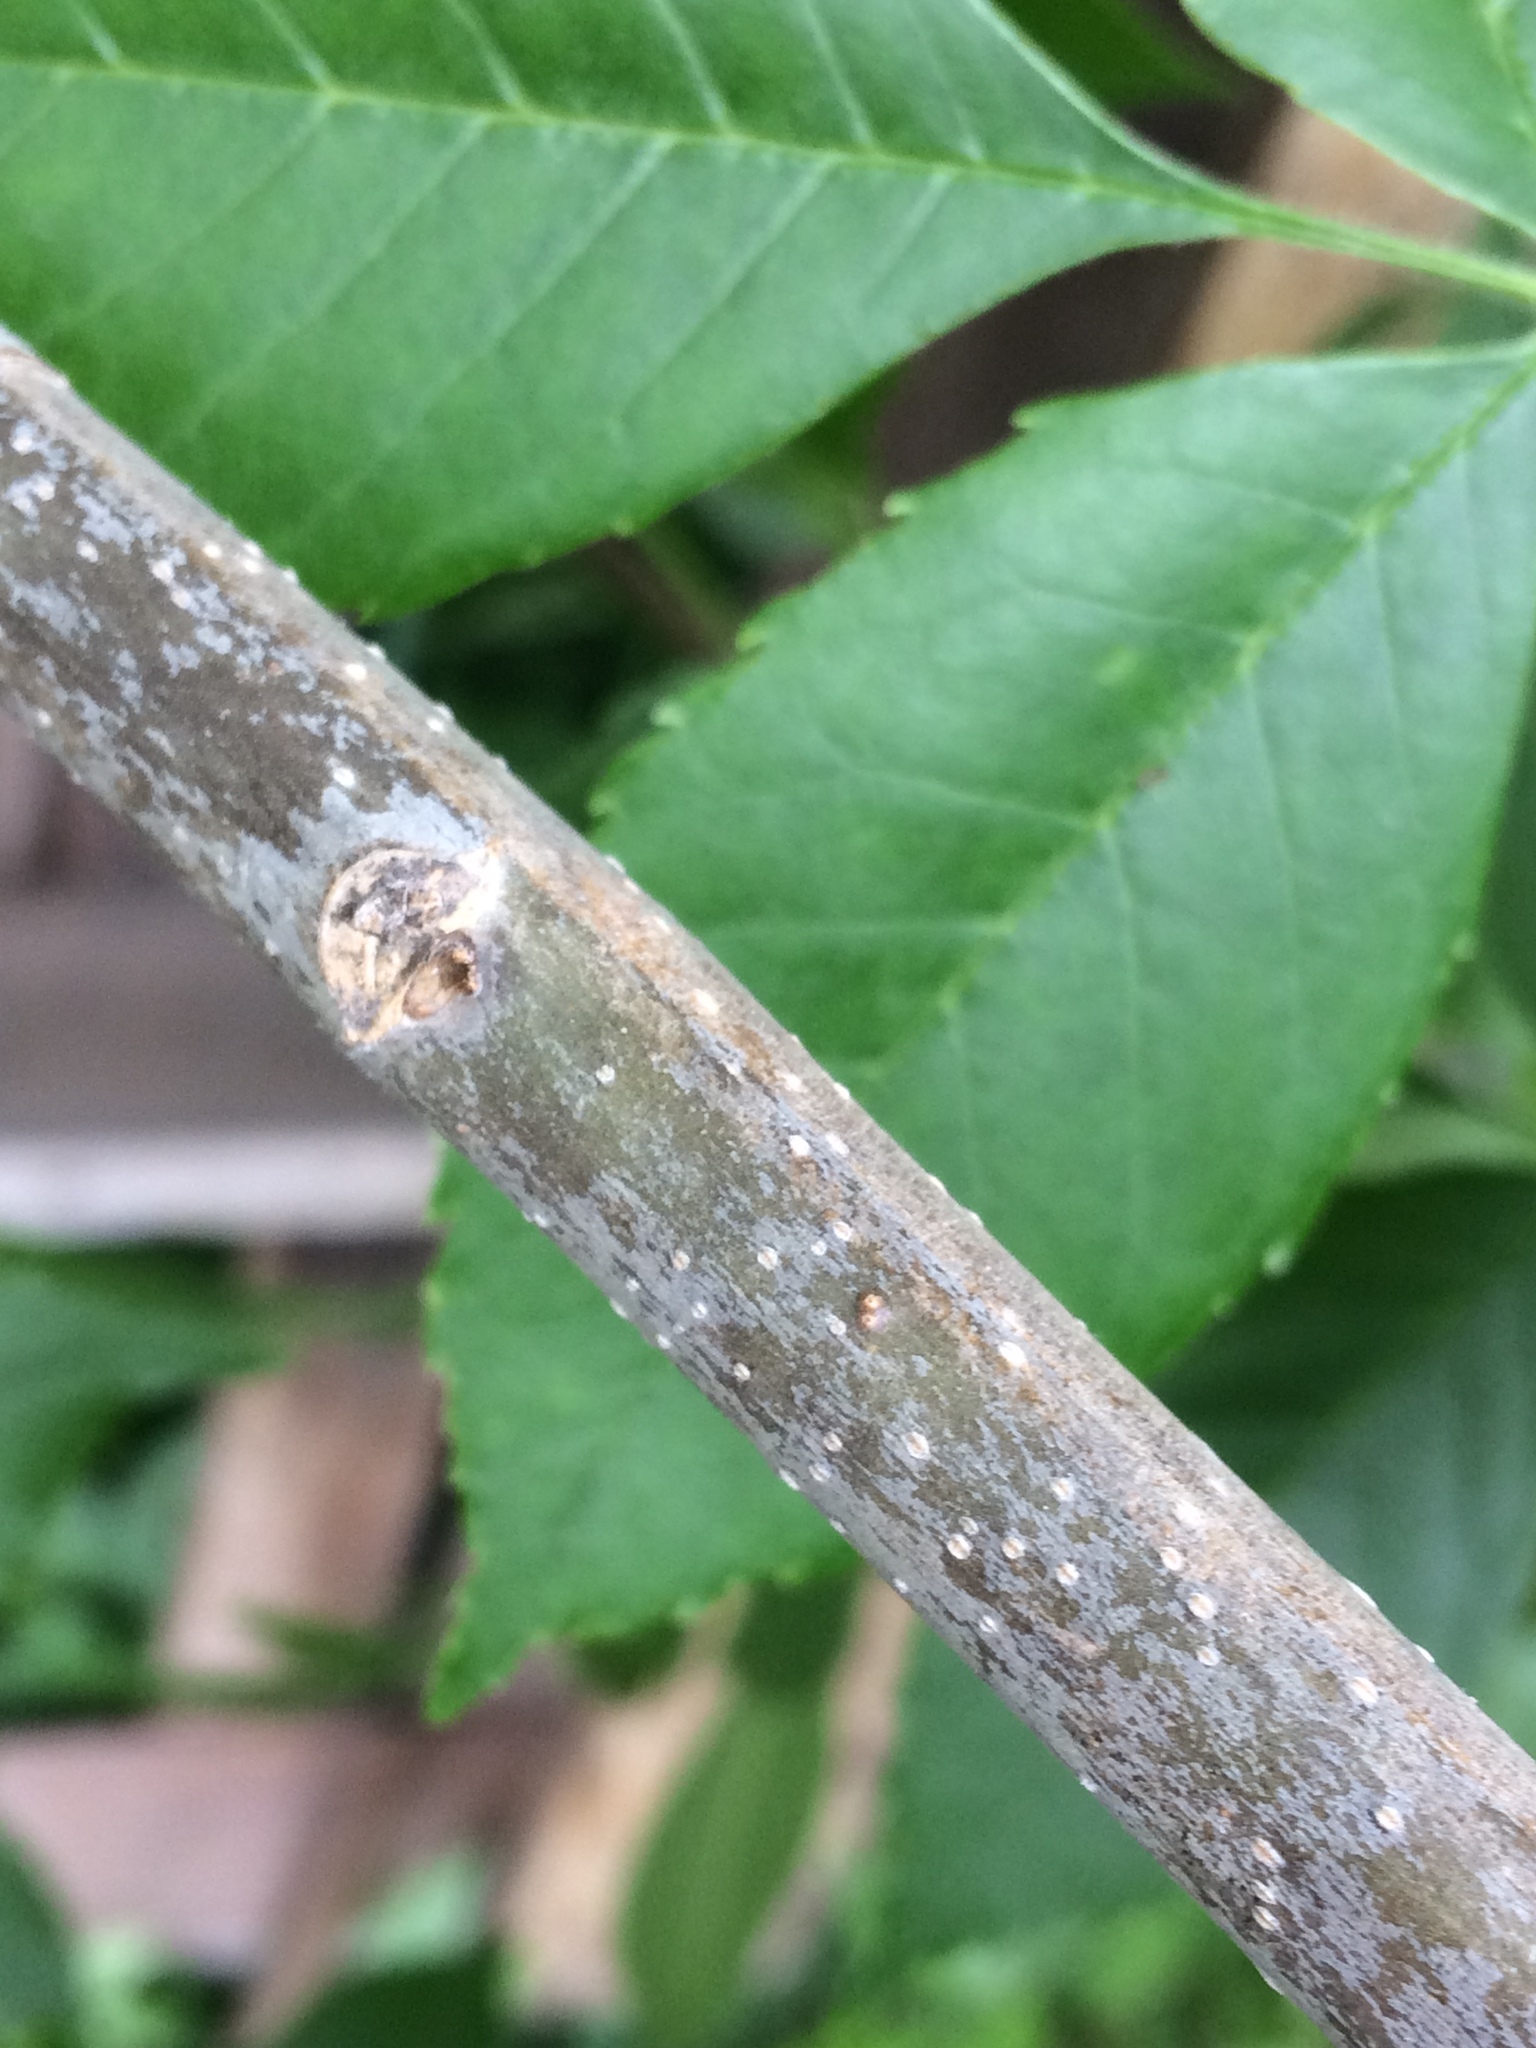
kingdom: Plantae
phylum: Tracheophyta
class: Magnoliopsida
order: Lamiales
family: Oleaceae
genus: Fraxinus
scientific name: Fraxinus pennsylvanica
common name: Green ash
